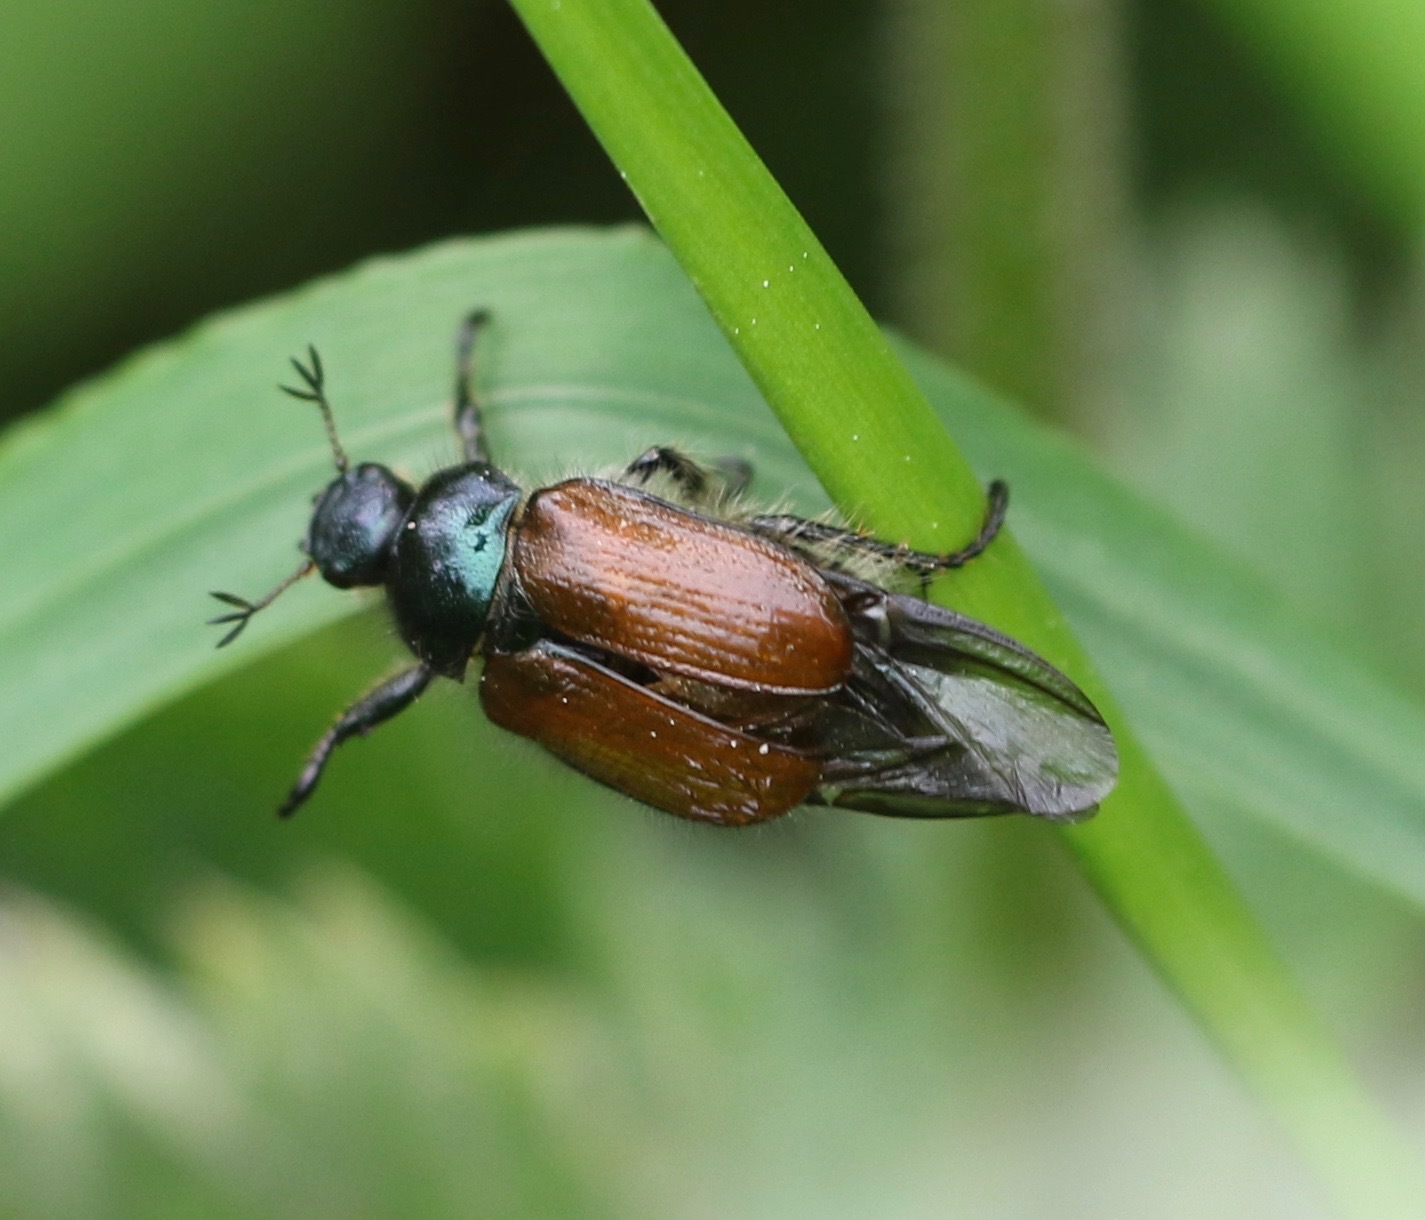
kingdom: Animalia
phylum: Arthropoda
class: Insecta
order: Coleoptera
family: Scarabaeidae
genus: Phyllopertha
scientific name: Phyllopertha horticola
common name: Garden chafer
